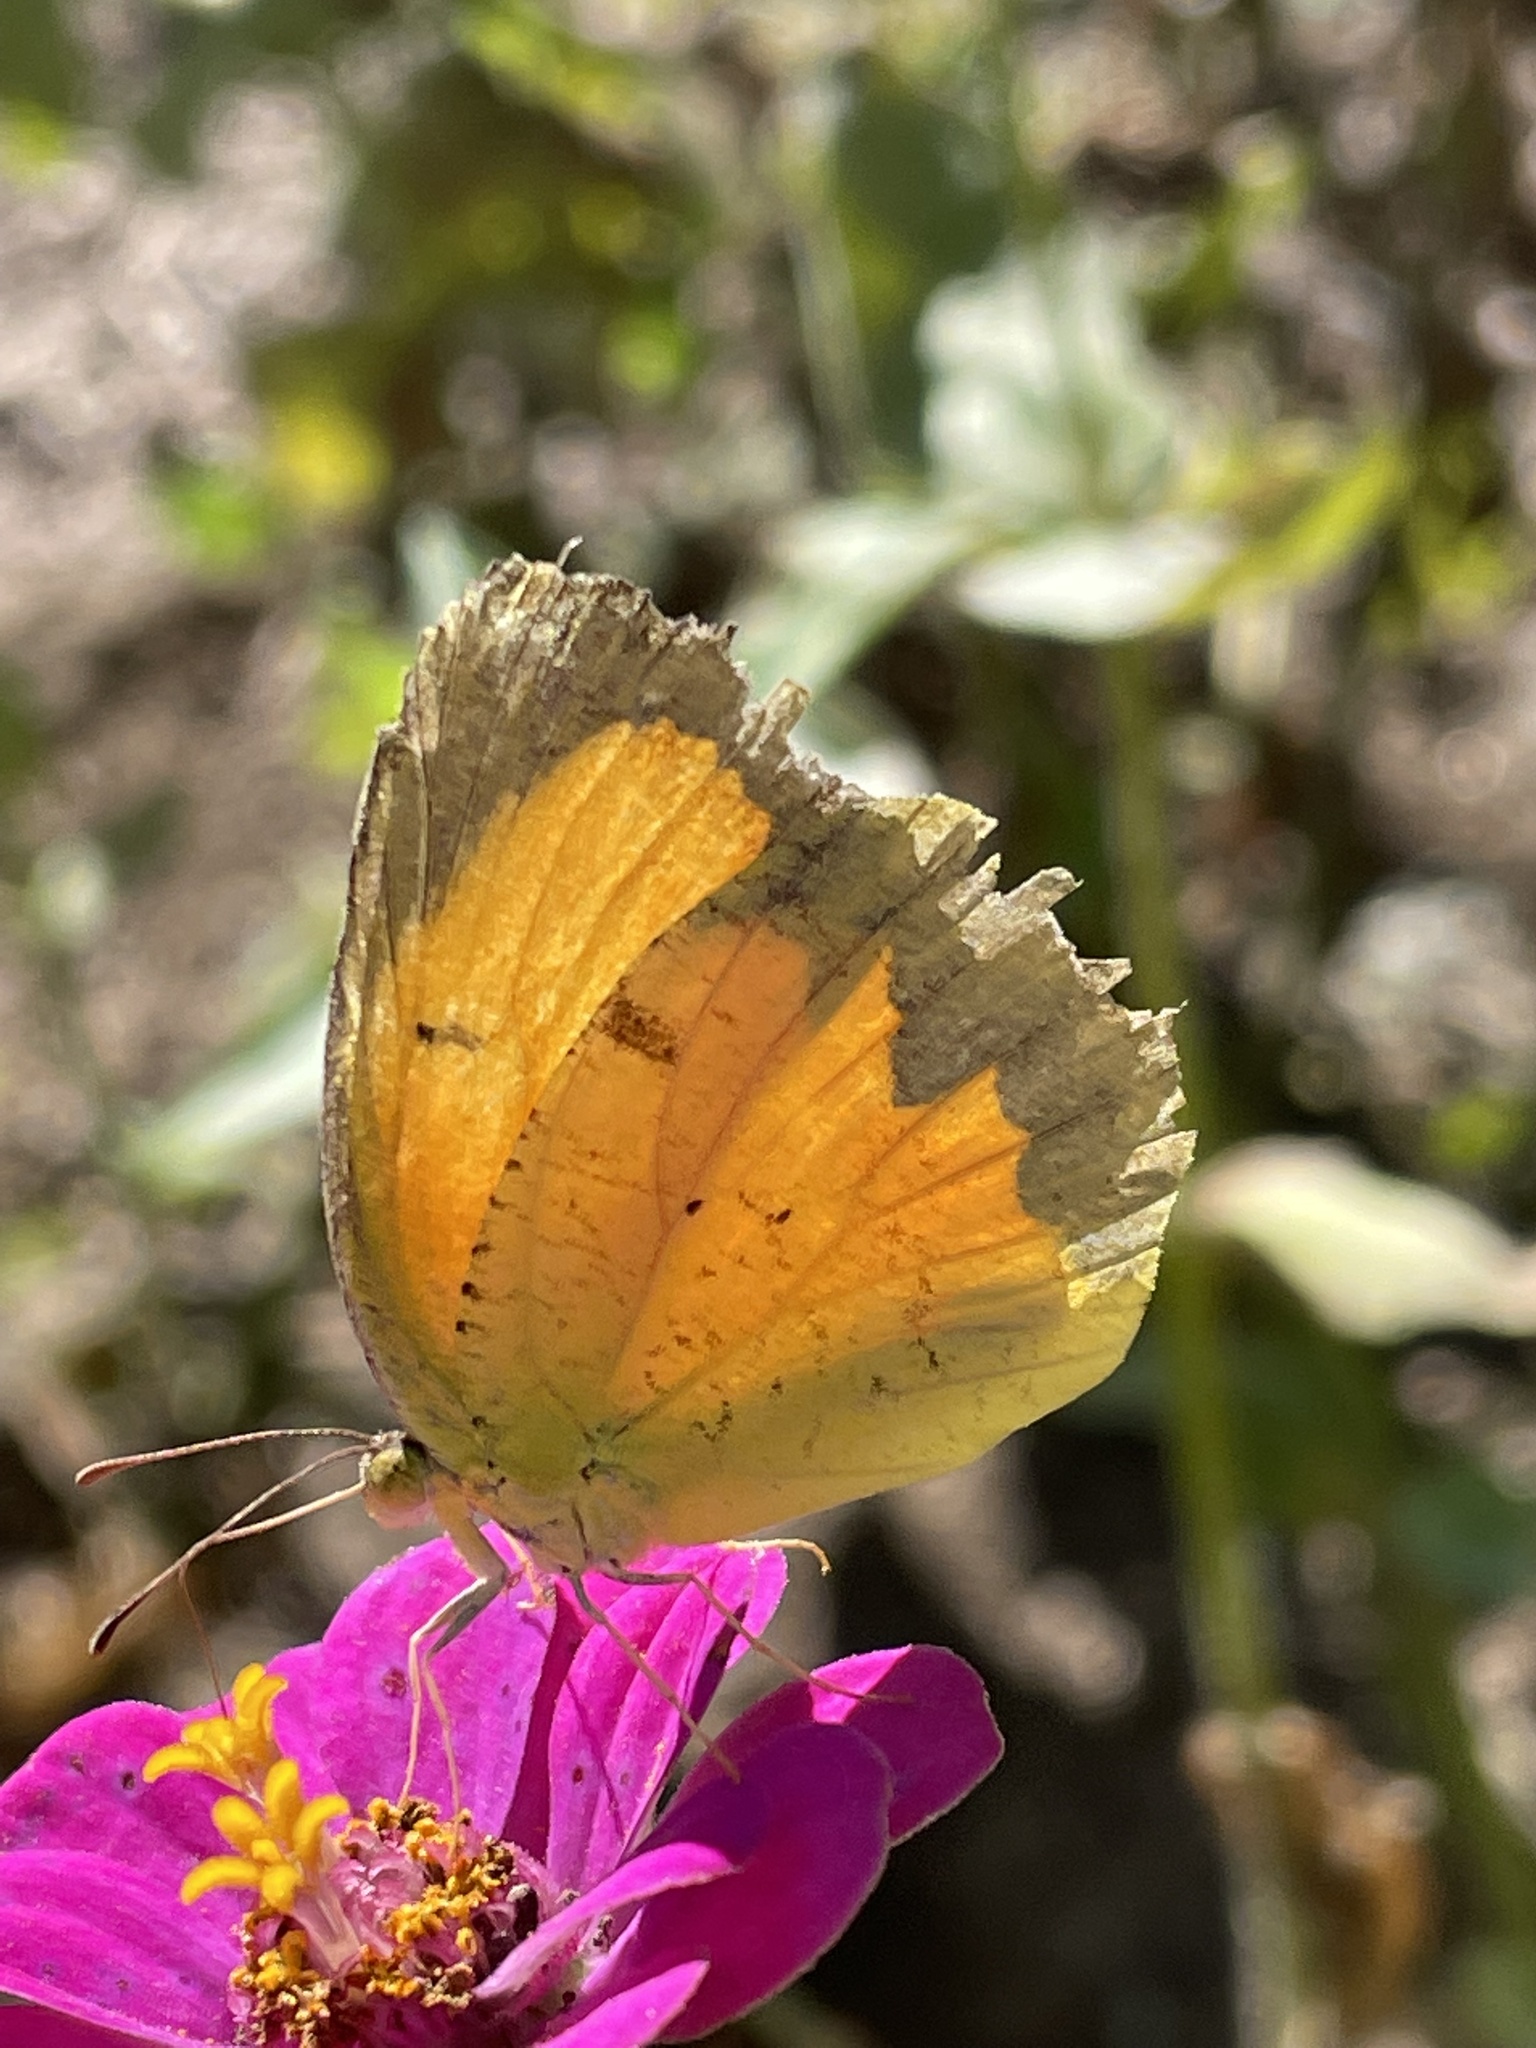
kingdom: Animalia
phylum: Arthropoda
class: Insecta
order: Lepidoptera
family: Pieridae
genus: Abaeis
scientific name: Abaeis nicippe
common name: Sleepy orange
